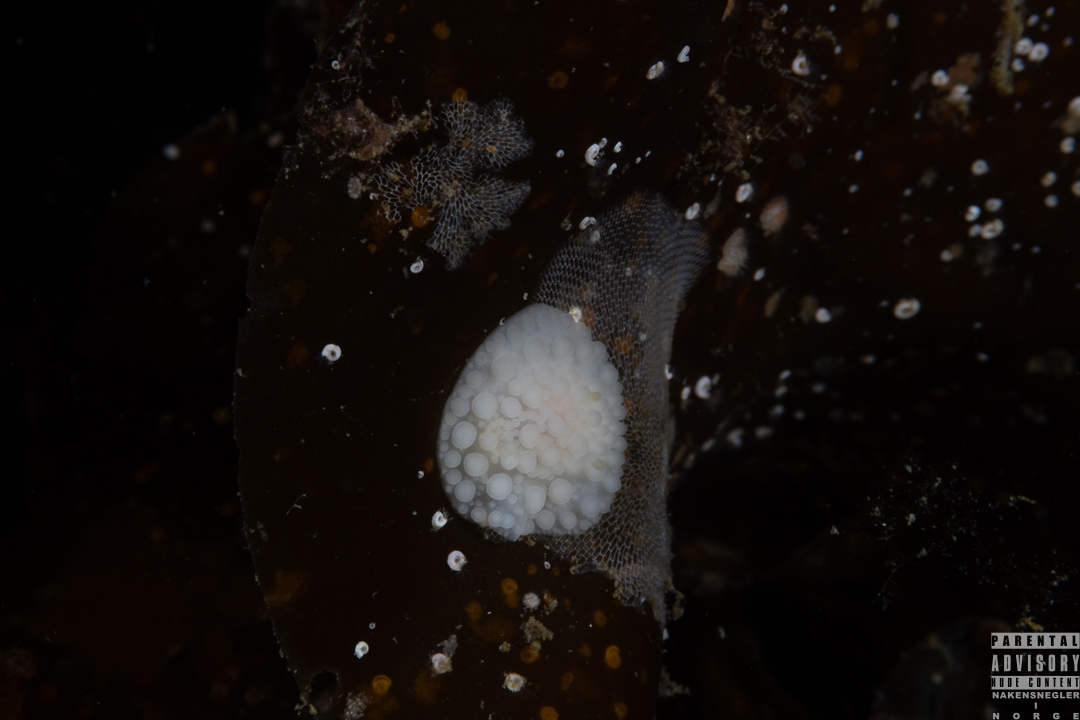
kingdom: Animalia
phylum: Mollusca
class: Gastropoda
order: Nudibranchia
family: Onchidorididae
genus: Adalaria
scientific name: Adalaria loveni
